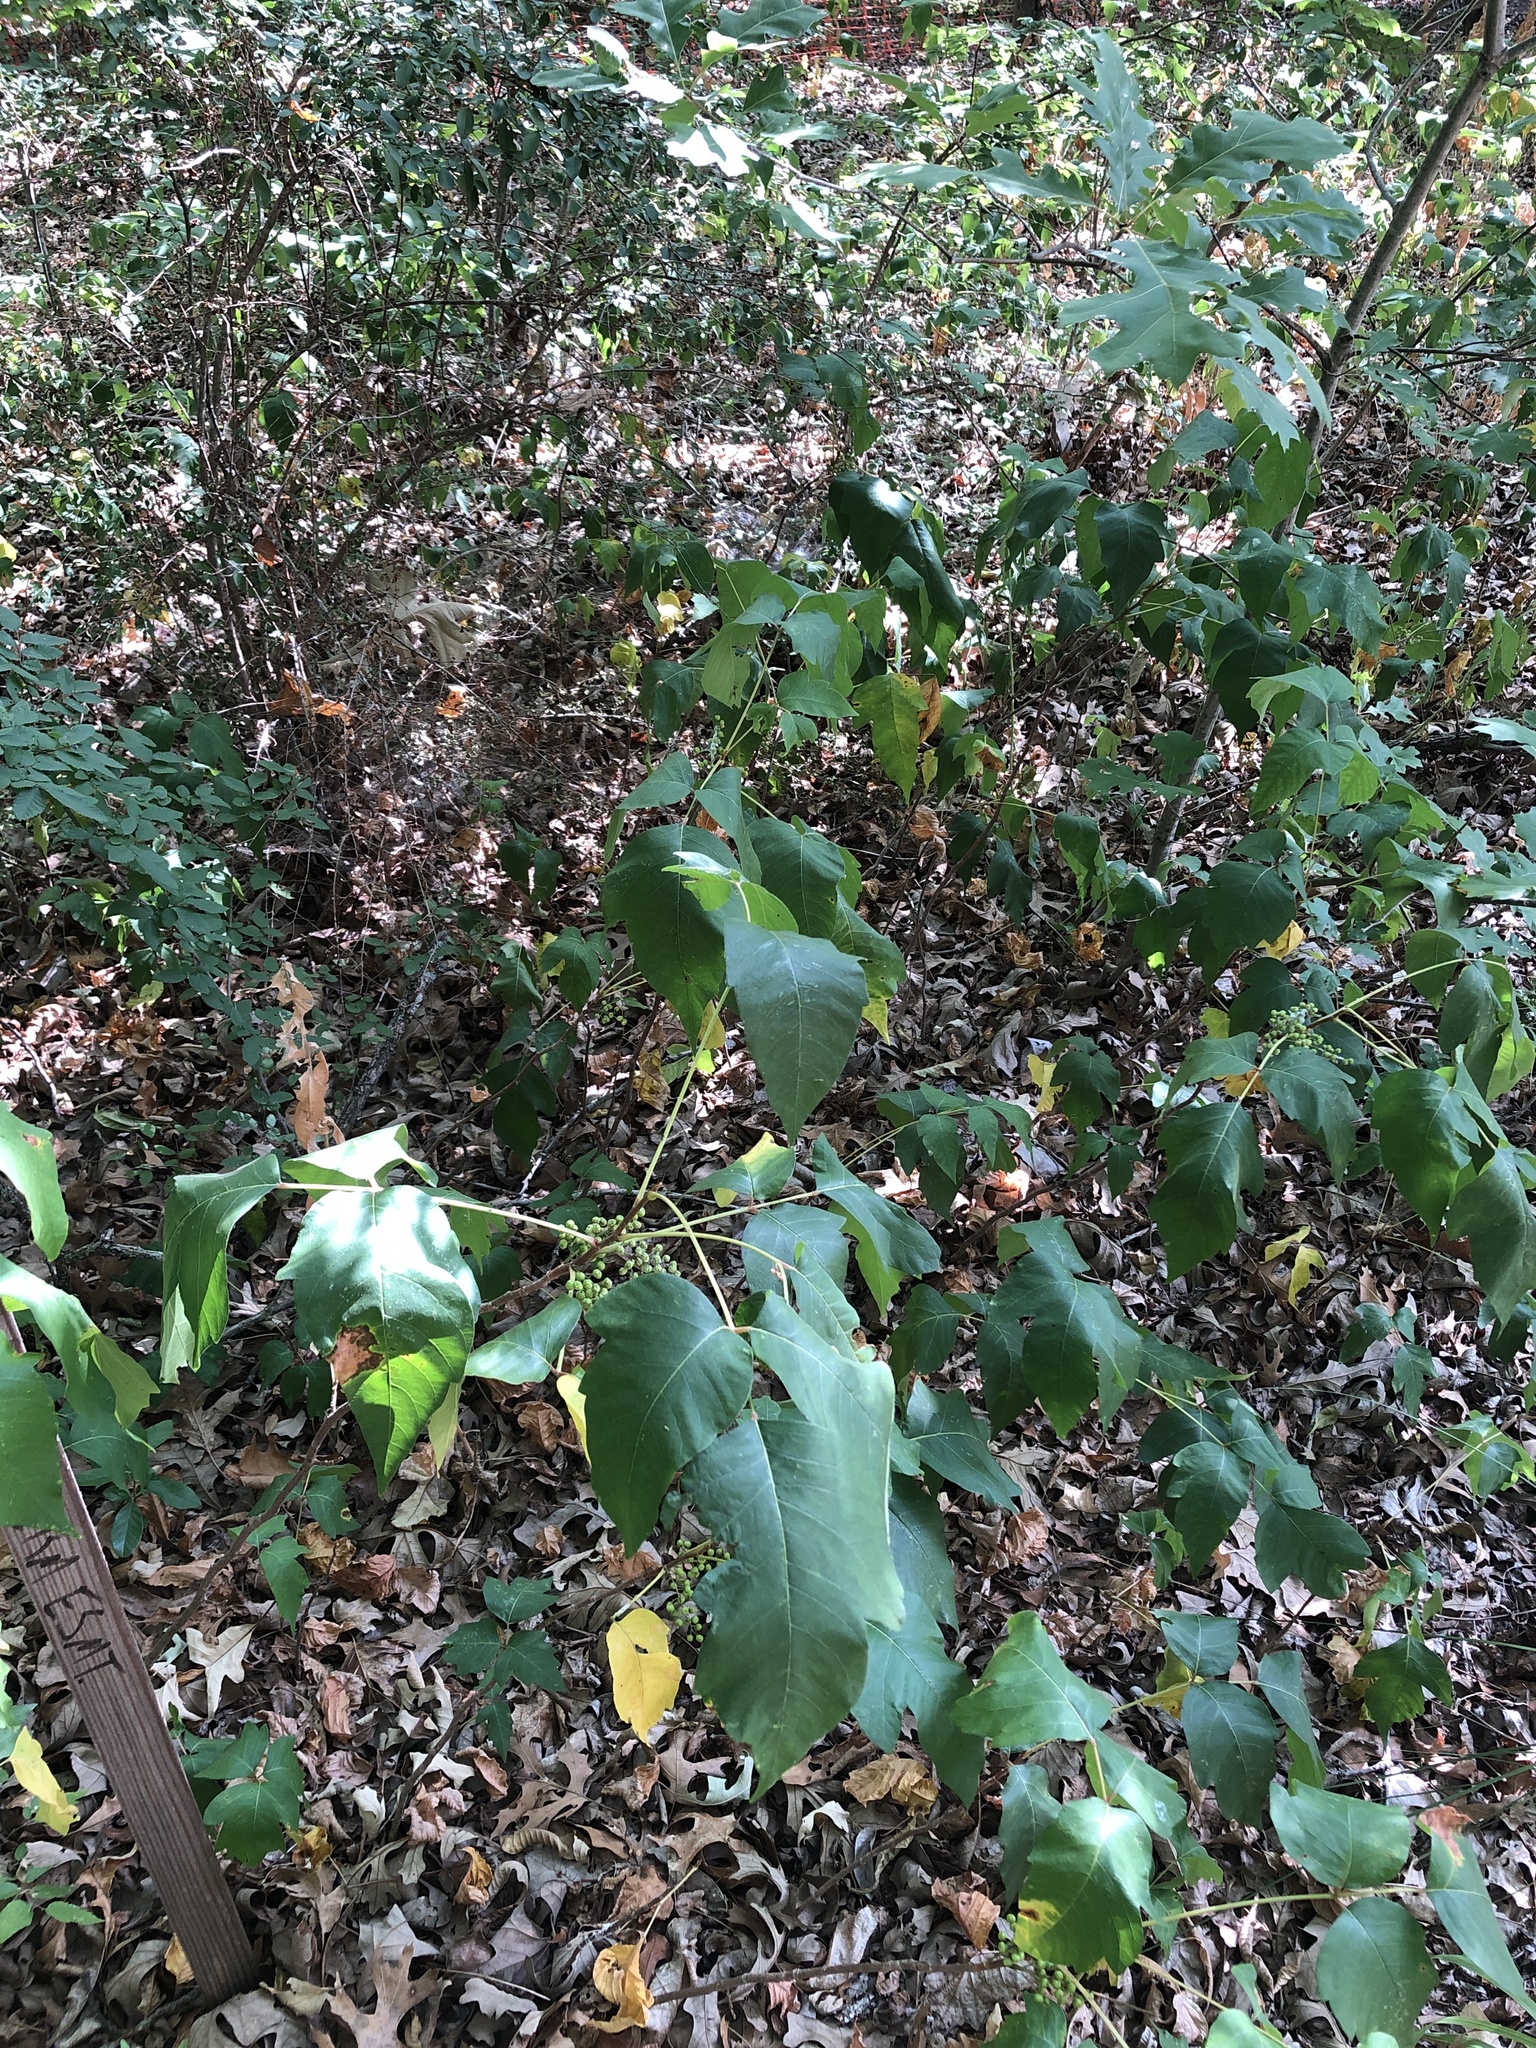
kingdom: Plantae
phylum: Tracheophyta
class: Magnoliopsida
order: Sapindales
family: Anacardiaceae
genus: Toxicodendron
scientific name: Toxicodendron radicans
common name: Poison ivy
